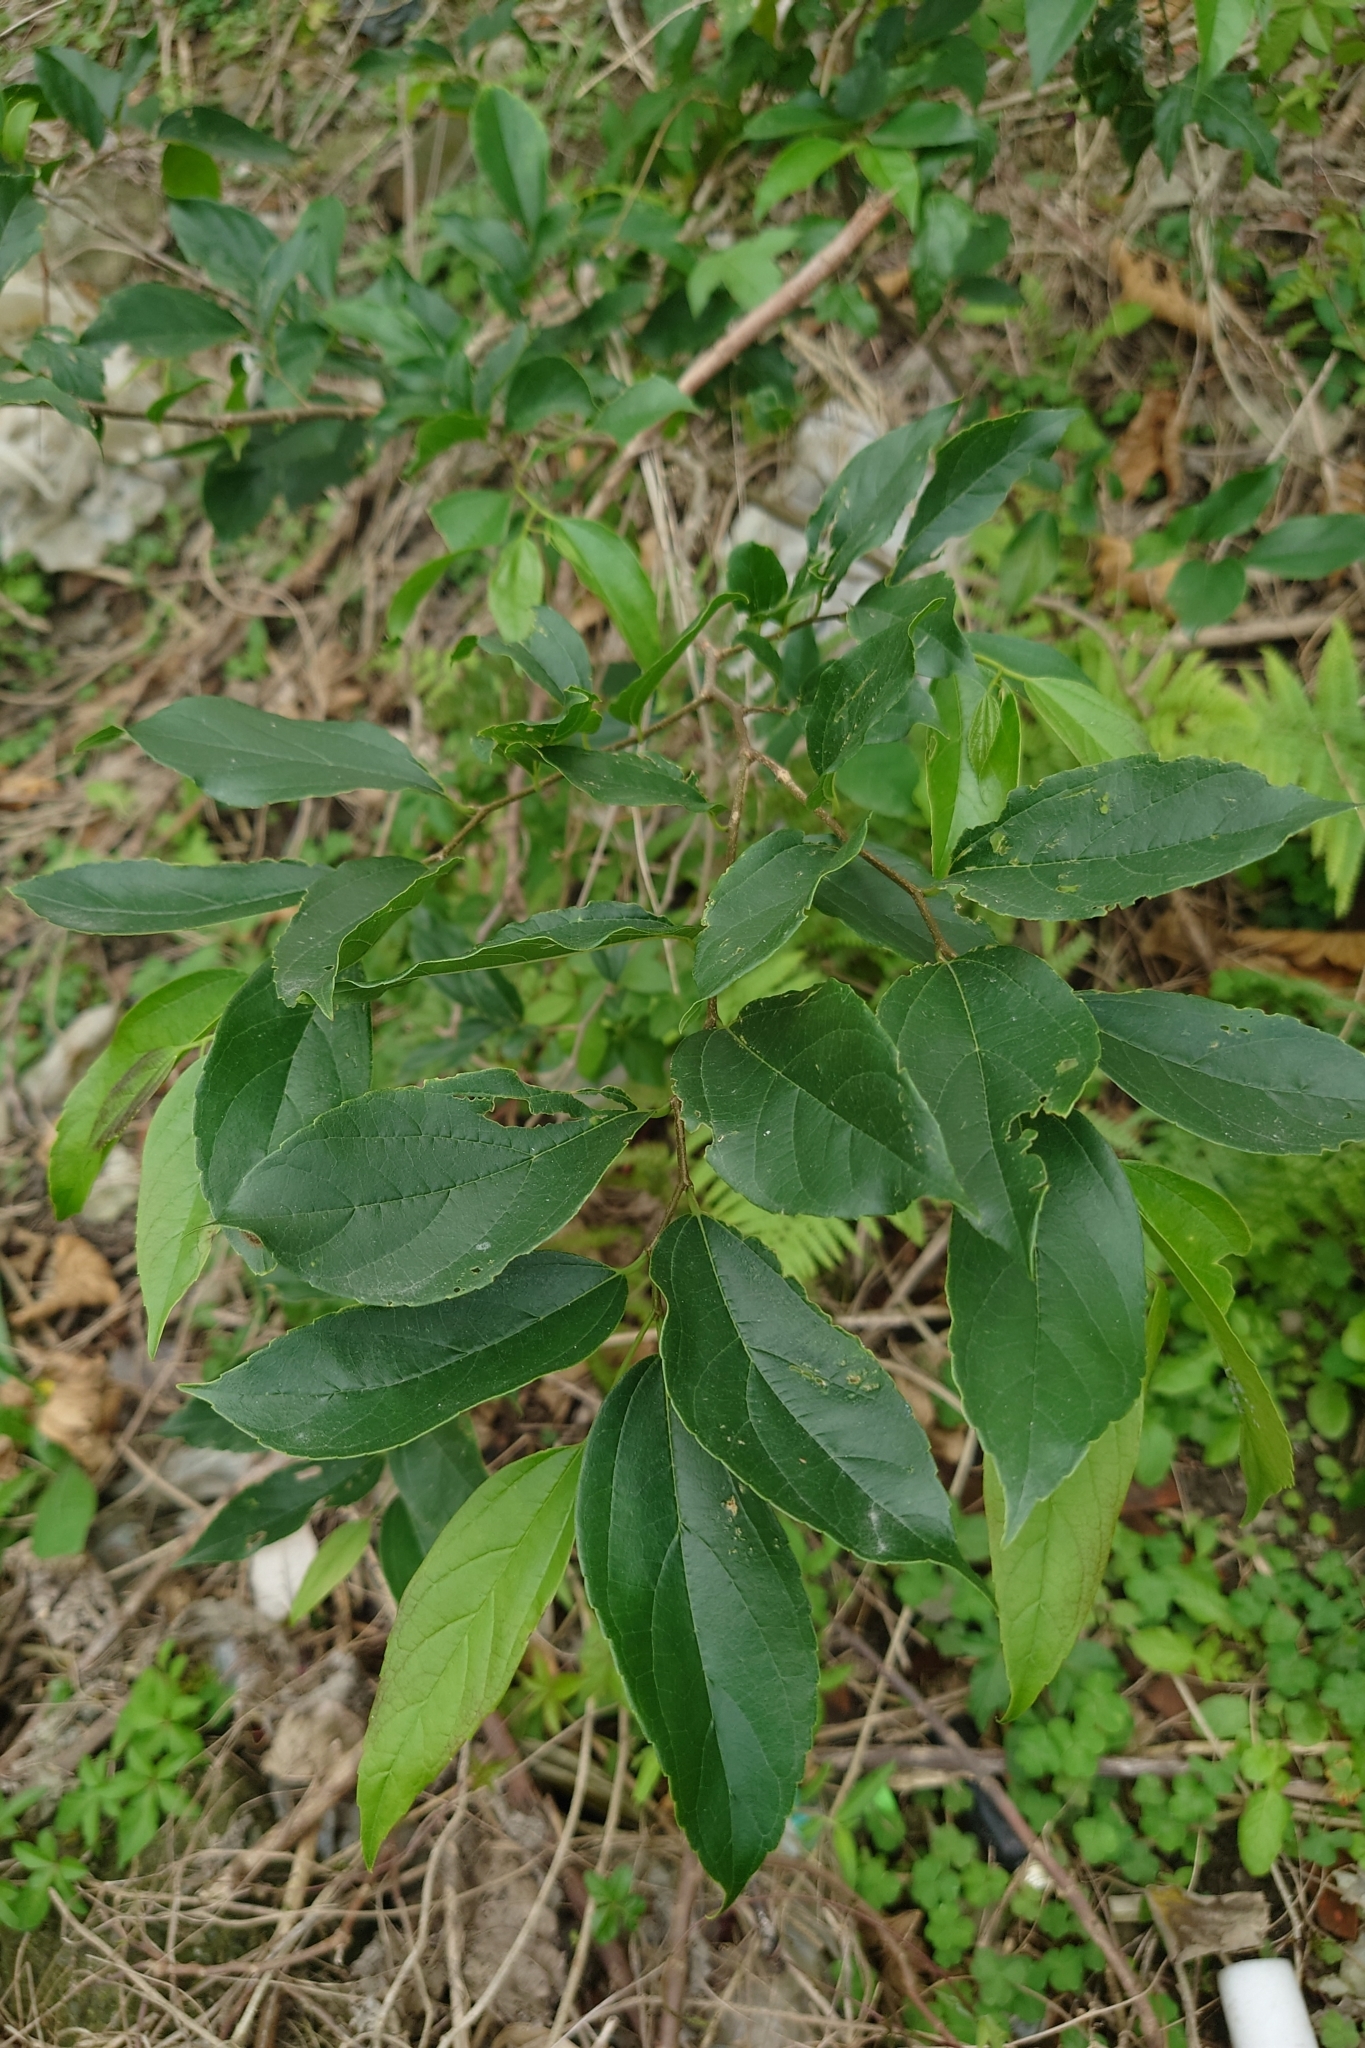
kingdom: Plantae
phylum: Tracheophyta
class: Magnoliopsida
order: Rosales
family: Cannabaceae
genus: Celtis
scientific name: Celtis tetrandra
